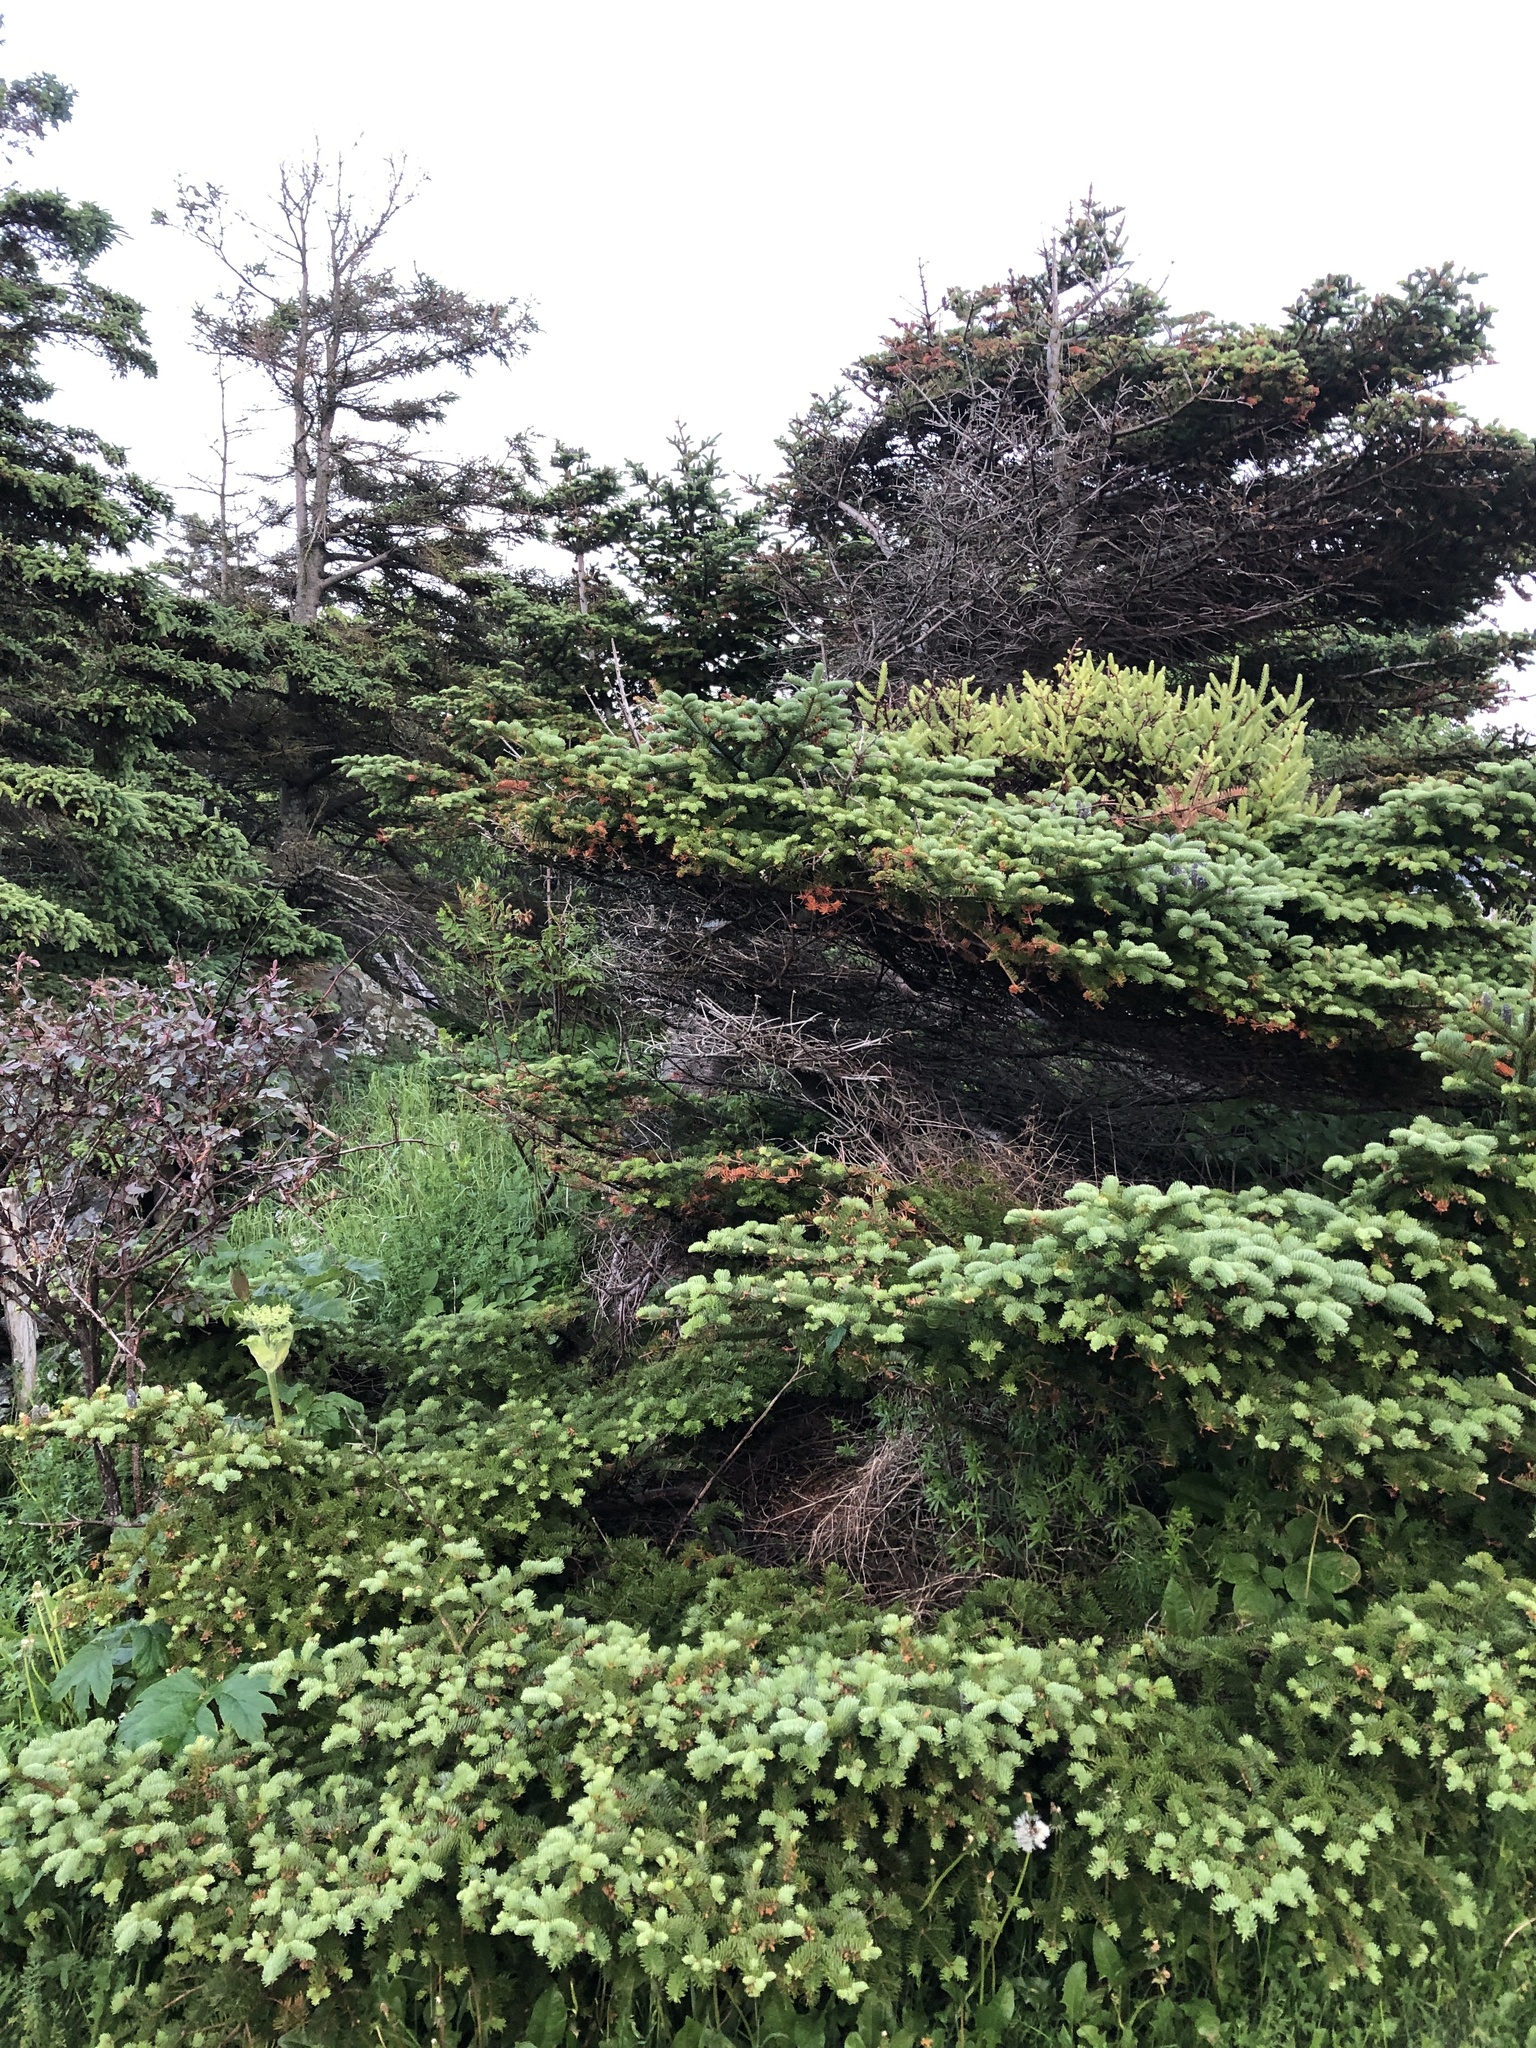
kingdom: Plantae
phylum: Tracheophyta
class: Pinopsida
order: Pinales
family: Pinaceae
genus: Abies
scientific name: Abies balsamea
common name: Balsam fir
